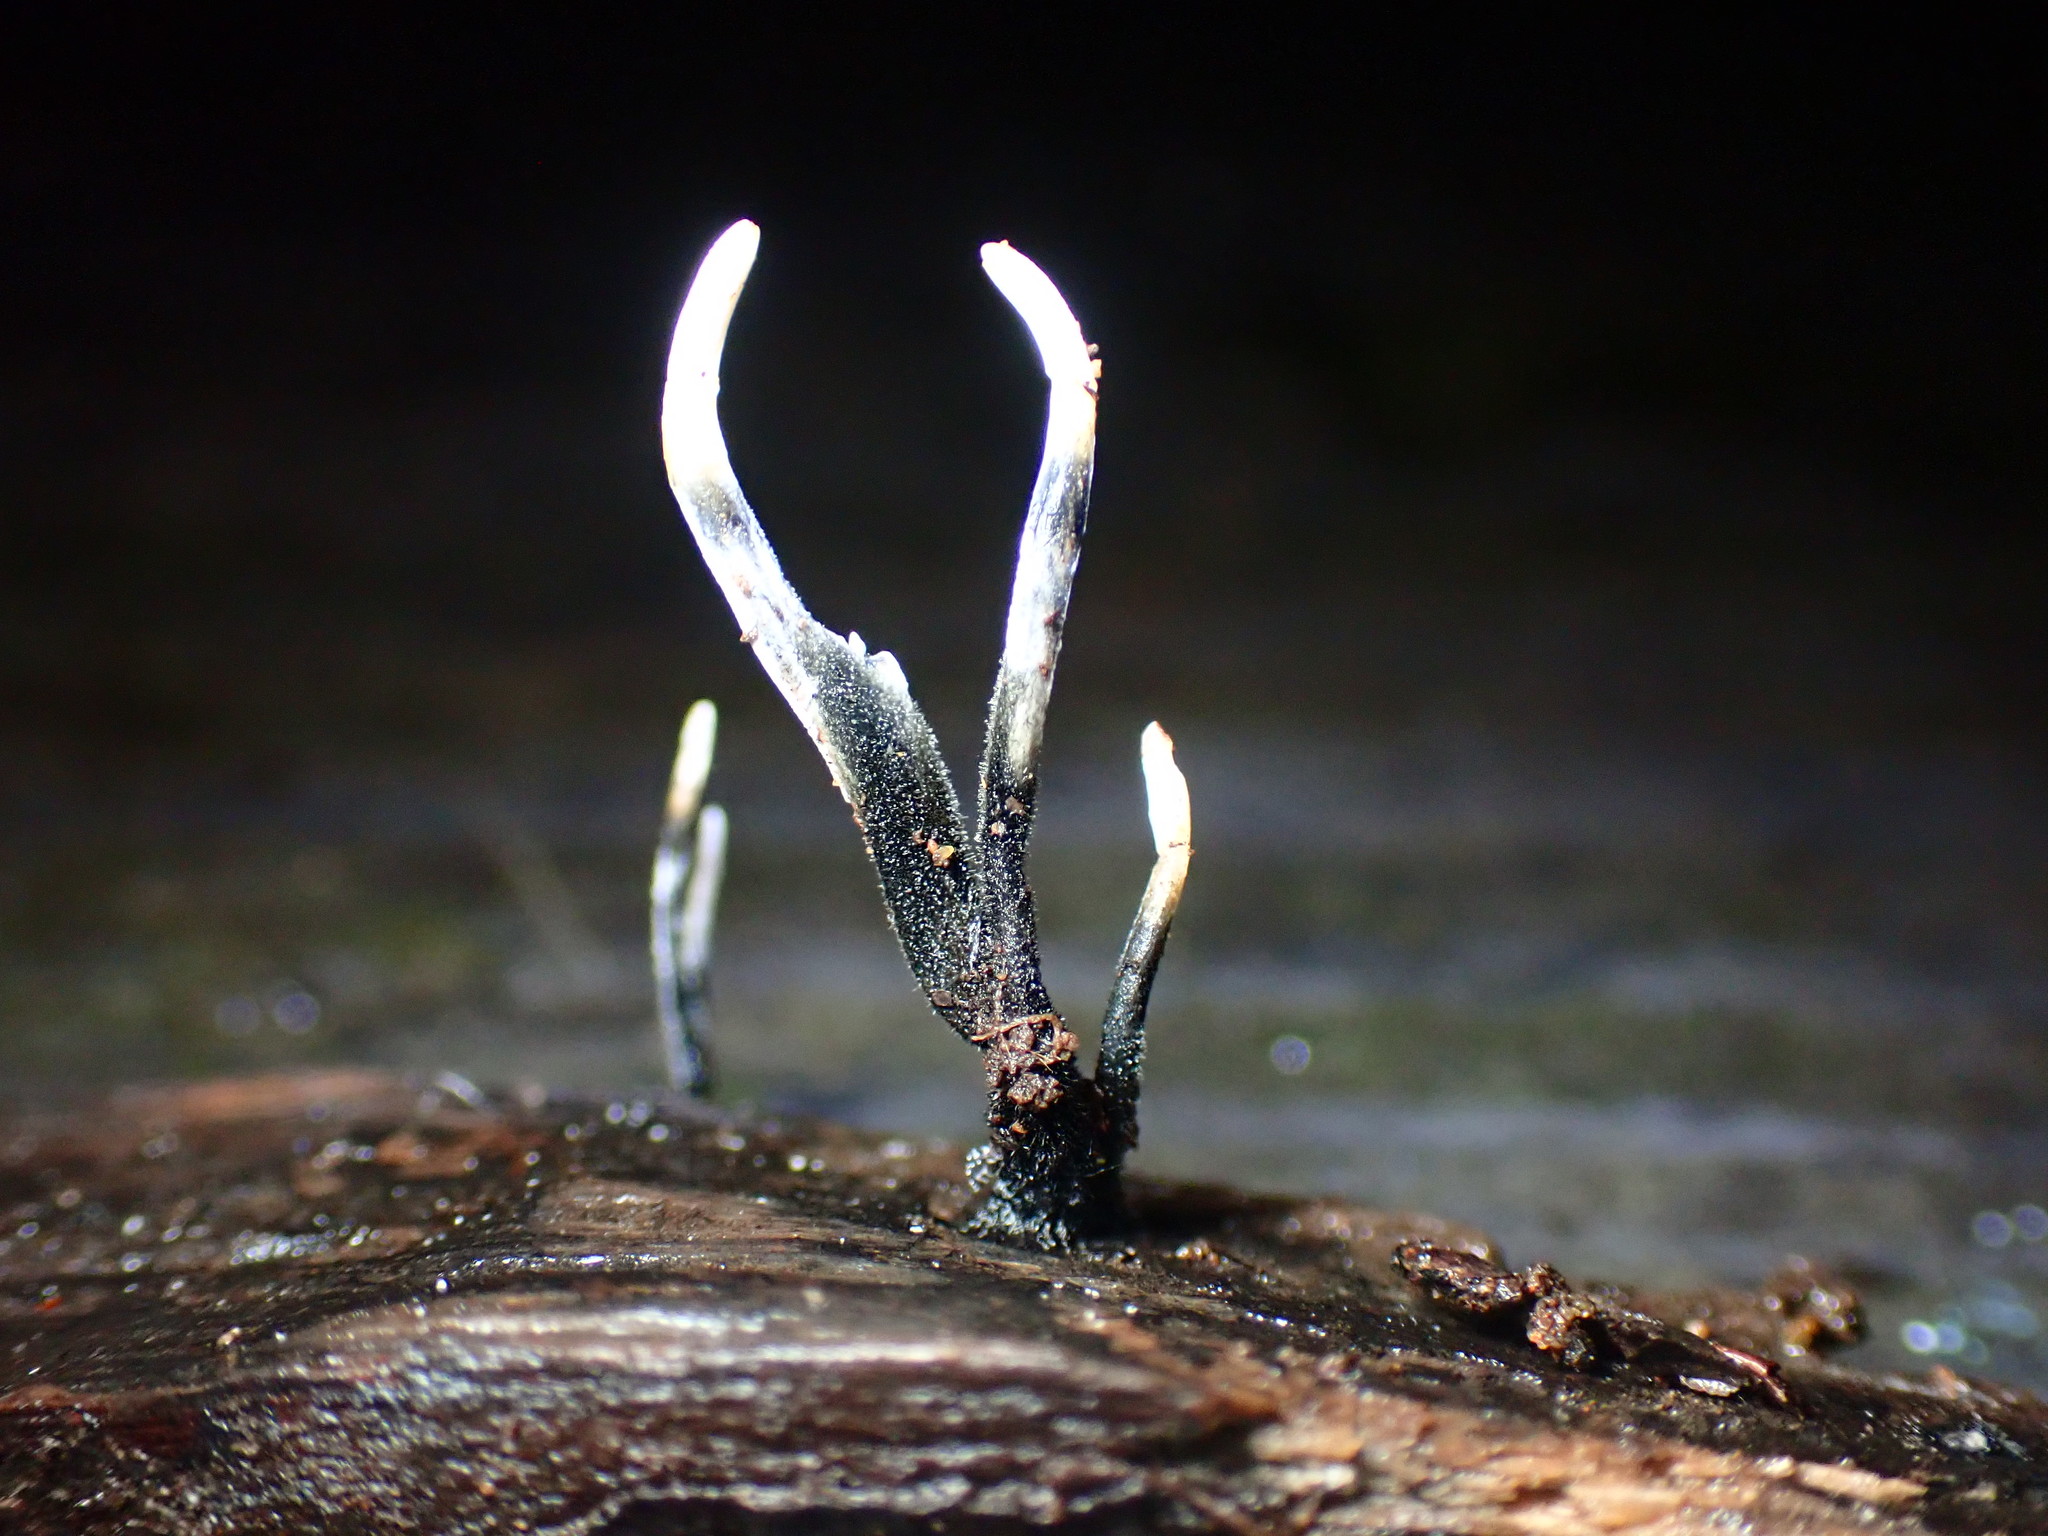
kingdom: Fungi
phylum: Ascomycota
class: Sordariomycetes
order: Xylariales
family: Xylariaceae
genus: Xylaria
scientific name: Xylaria hypoxylon
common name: Candle-snuff fungus
